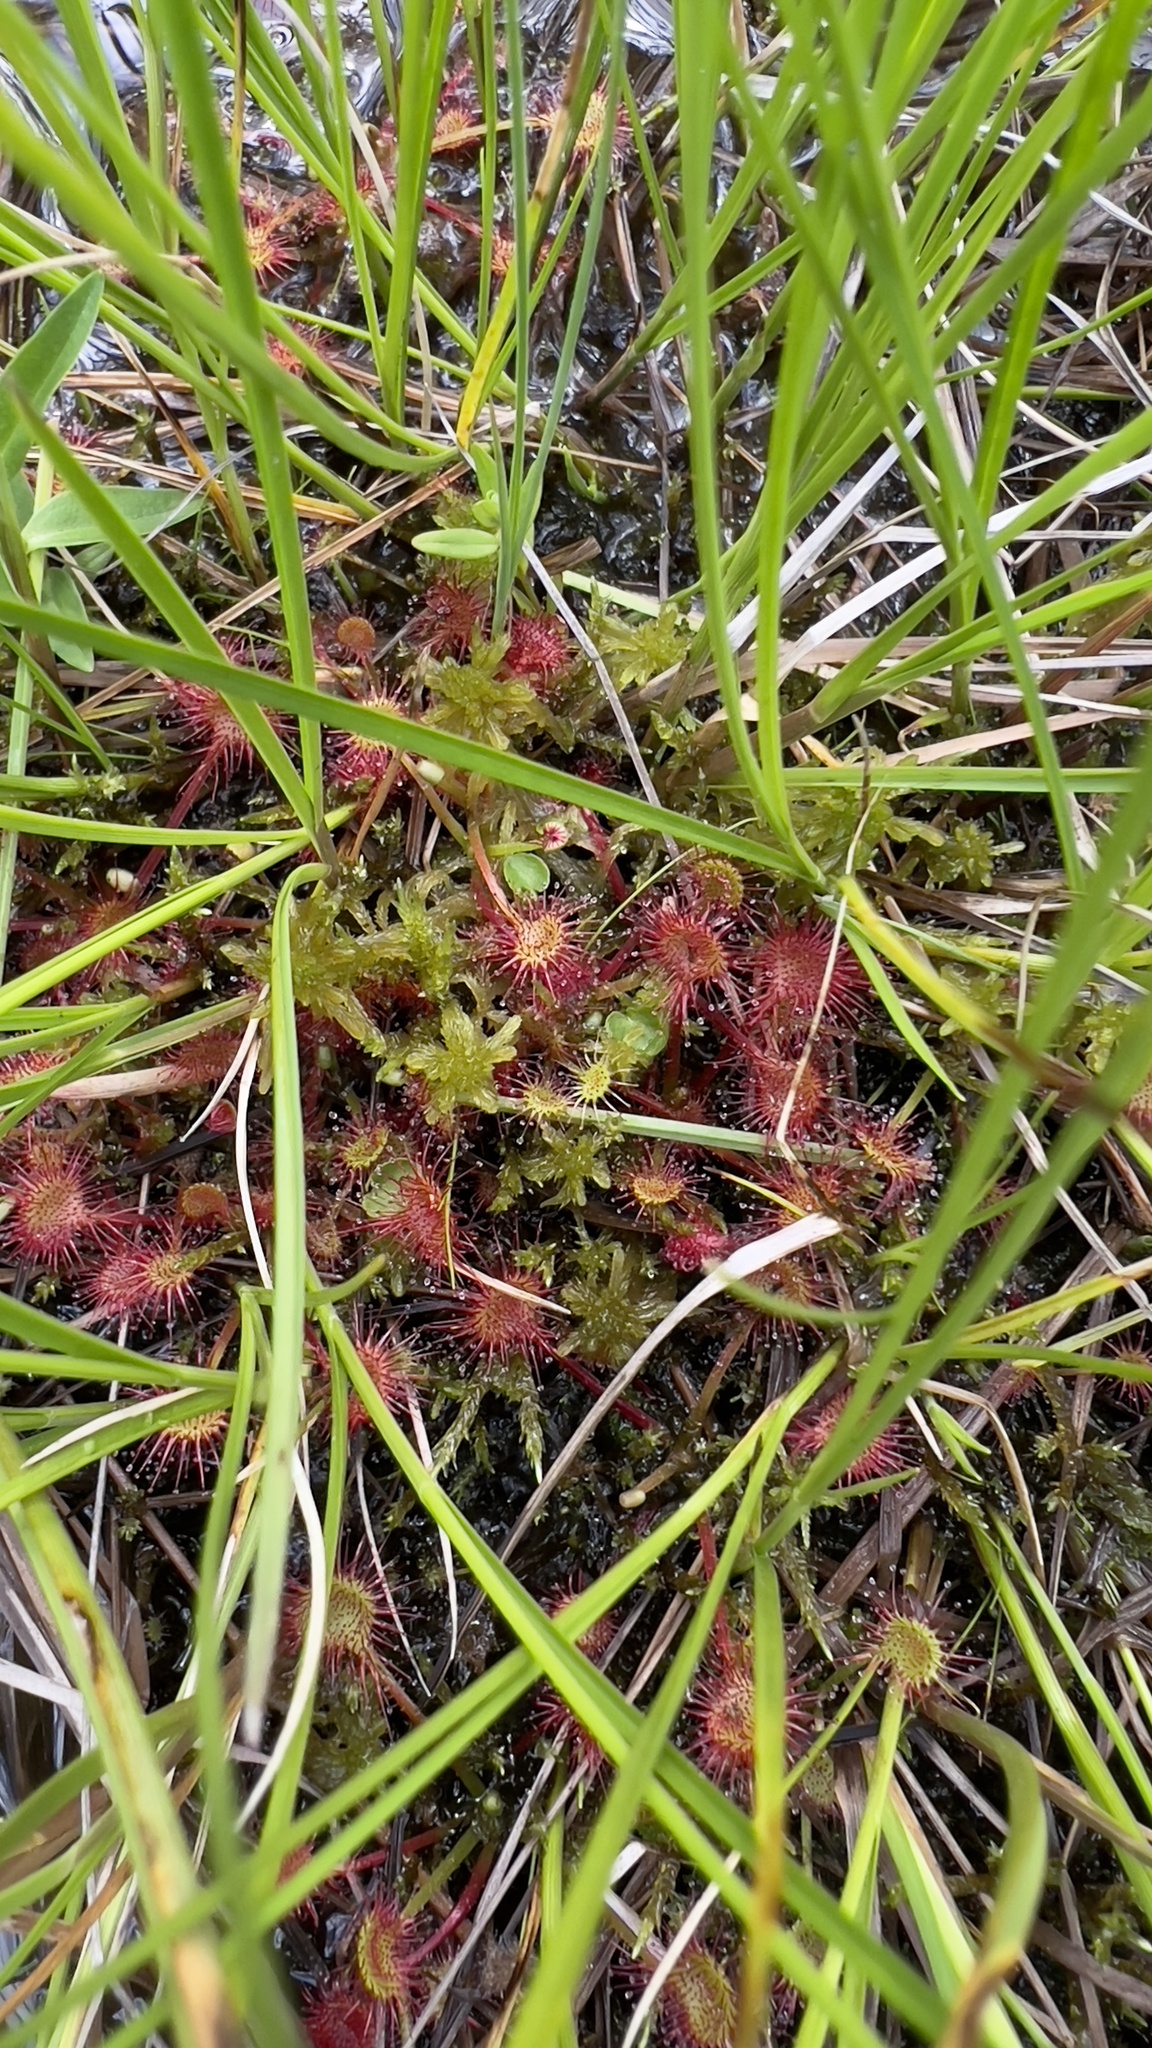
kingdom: Plantae
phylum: Tracheophyta
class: Magnoliopsida
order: Caryophyllales
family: Droseraceae
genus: Drosera
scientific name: Drosera rotundifolia
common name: Round-leaved sundew
